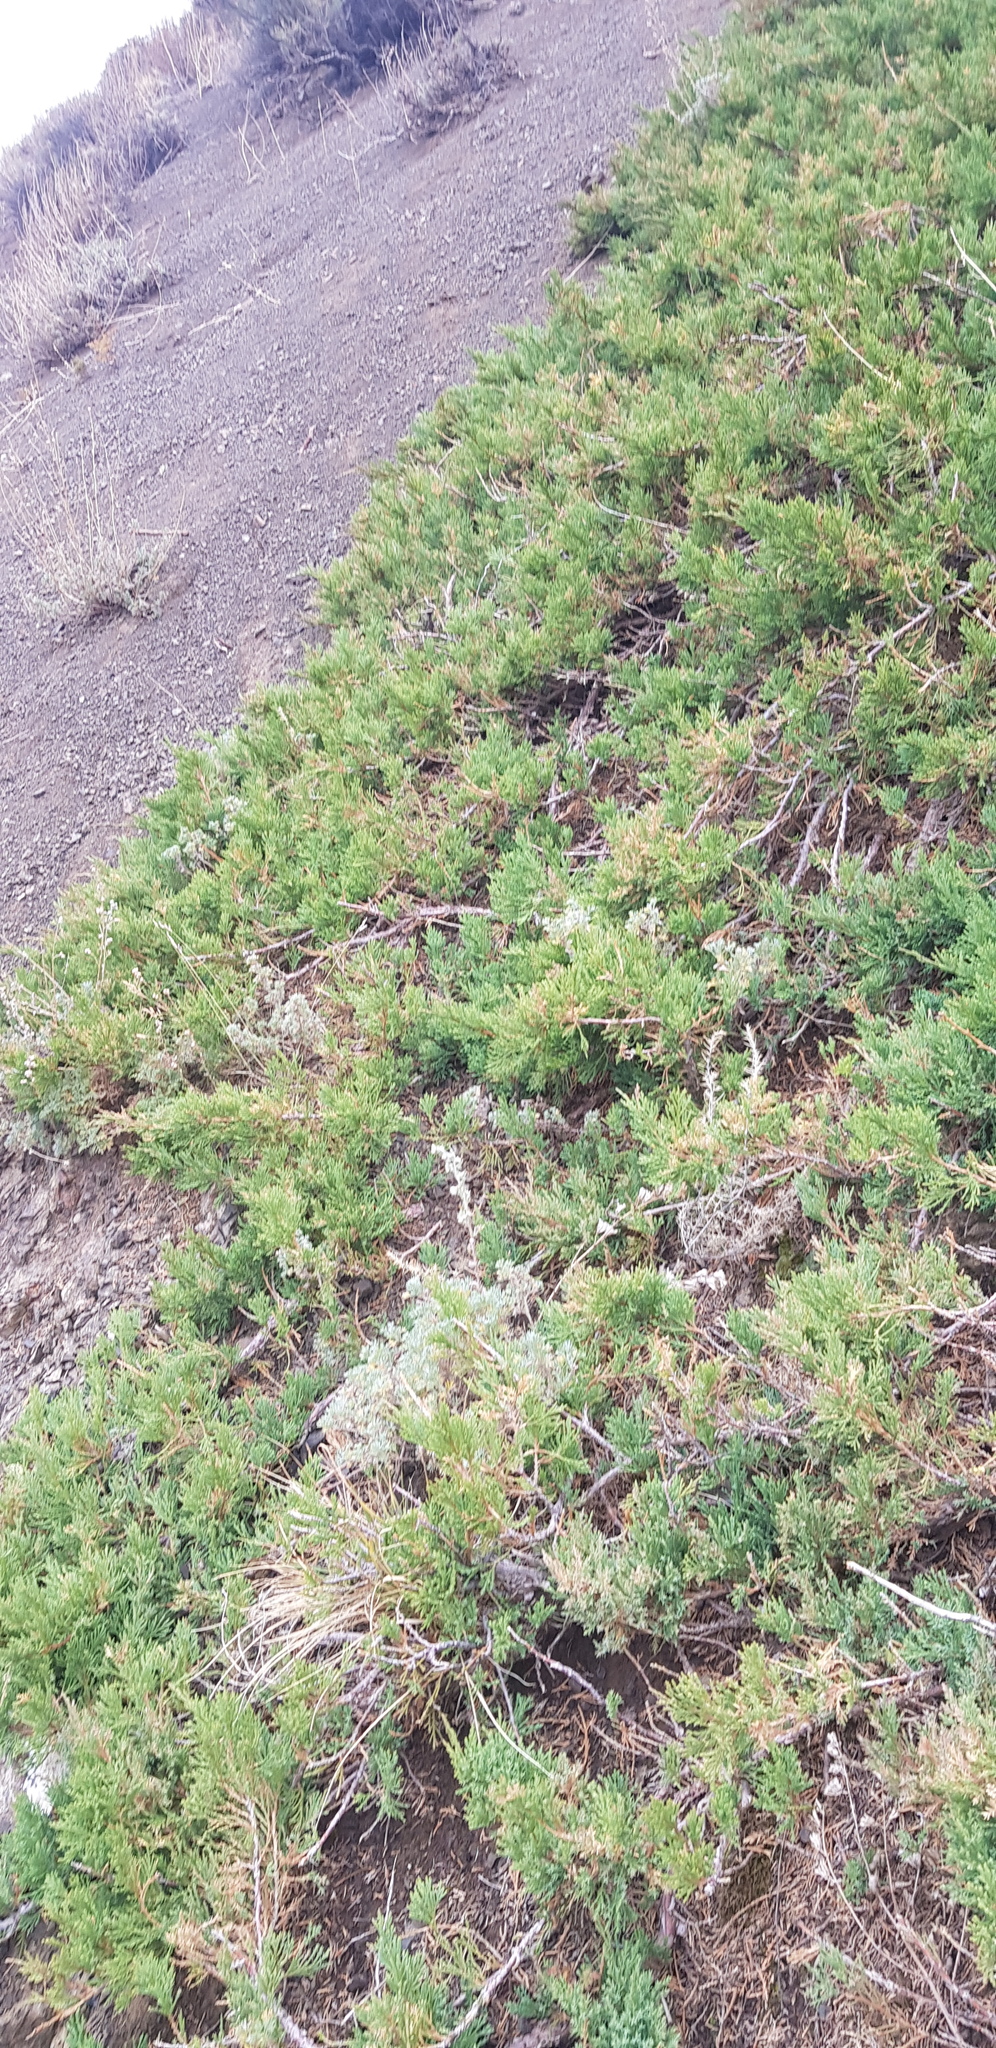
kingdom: Plantae
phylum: Tracheophyta
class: Pinopsida
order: Pinales
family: Cupressaceae
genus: Juniperus
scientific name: Juniperus pseudosabina
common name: Turkestan juniper
